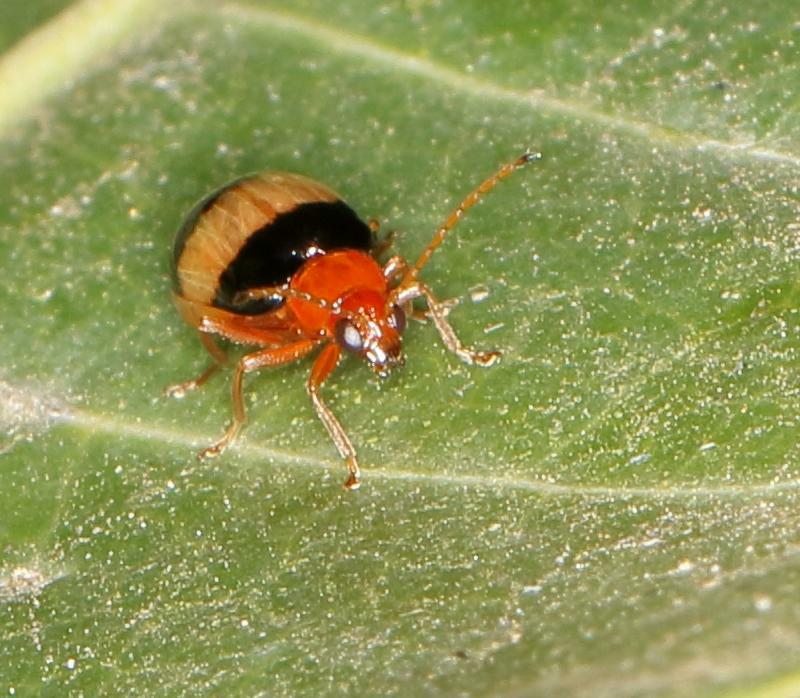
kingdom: Animalia
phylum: Arthropoda
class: Insecta
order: Coleoptera
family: Chrysomelidae
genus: Monolepta
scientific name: Monolepta
